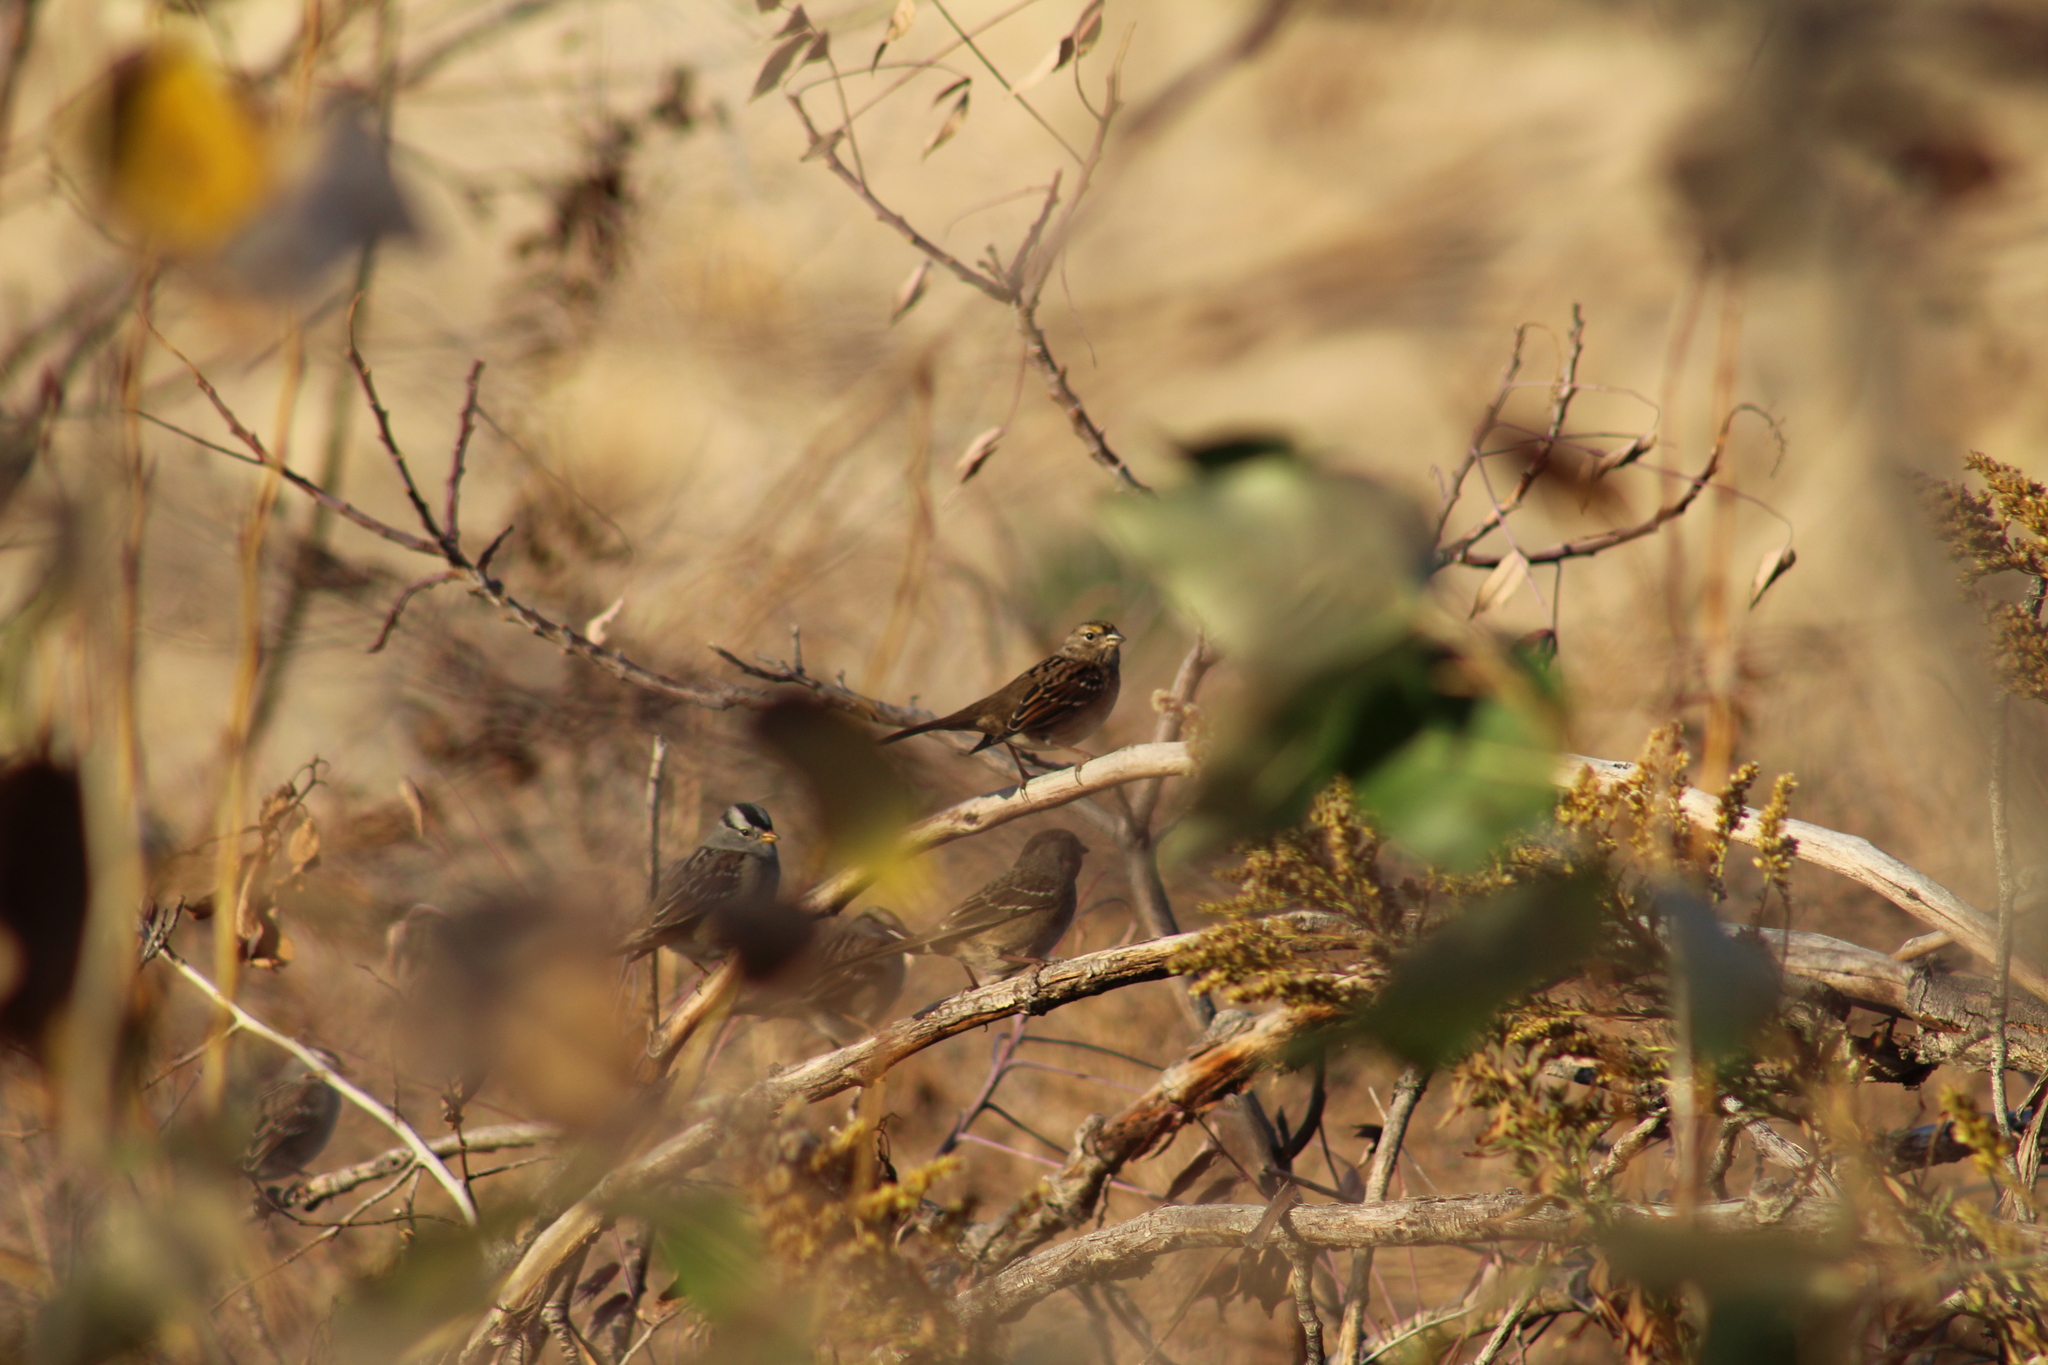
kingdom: Animalia
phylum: Chordata
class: Aves
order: Passeriformes
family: Passerellidae
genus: Zonotrichia
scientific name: Zonotrichia atricapilla
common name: Golden-crowned sparrow
